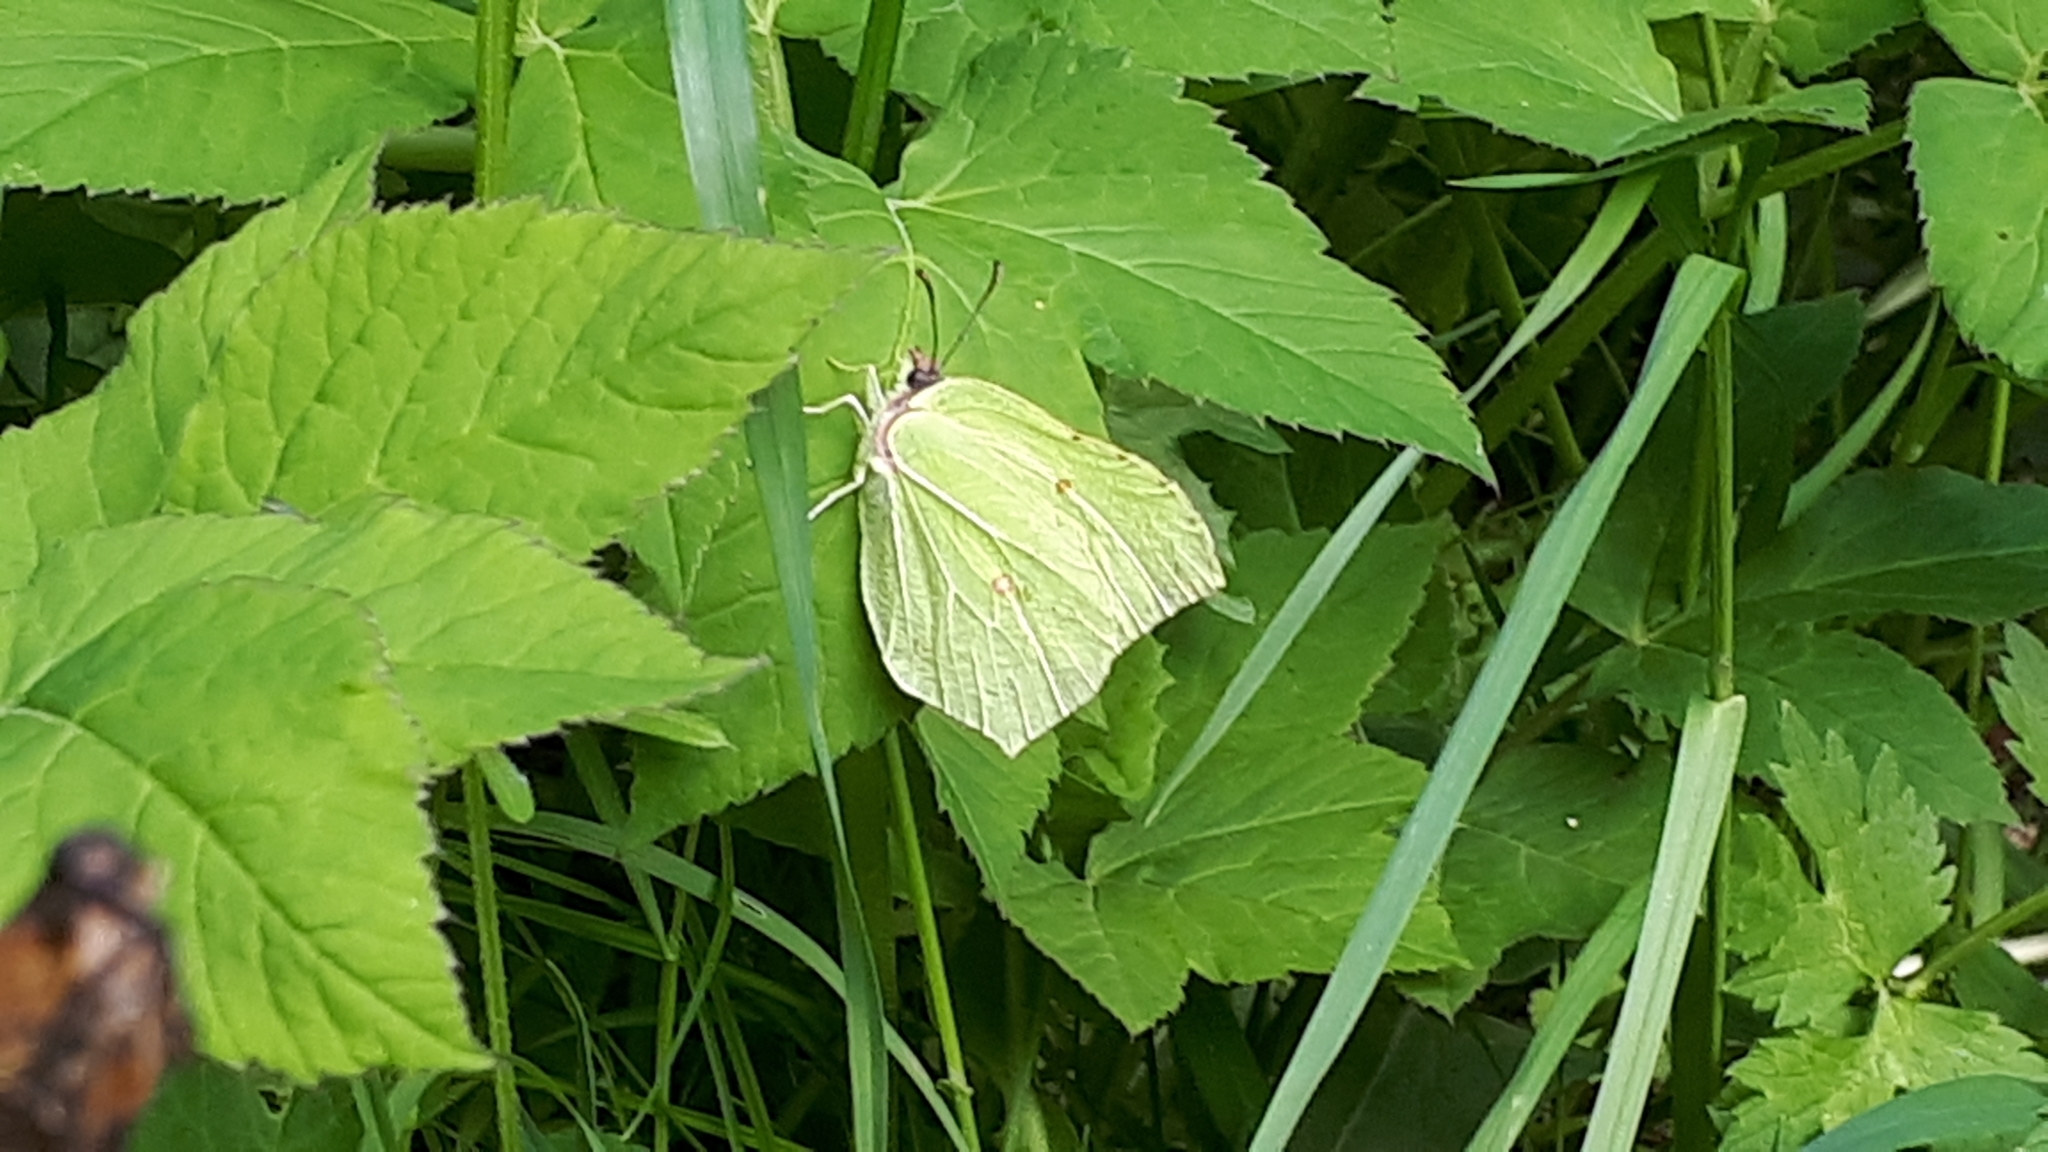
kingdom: Animalia
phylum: Arthropoda
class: Insecta
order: Lepidoptera
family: Pieridae
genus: Gonepteryx
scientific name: Gonepteryx rhamni
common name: Brimstone
